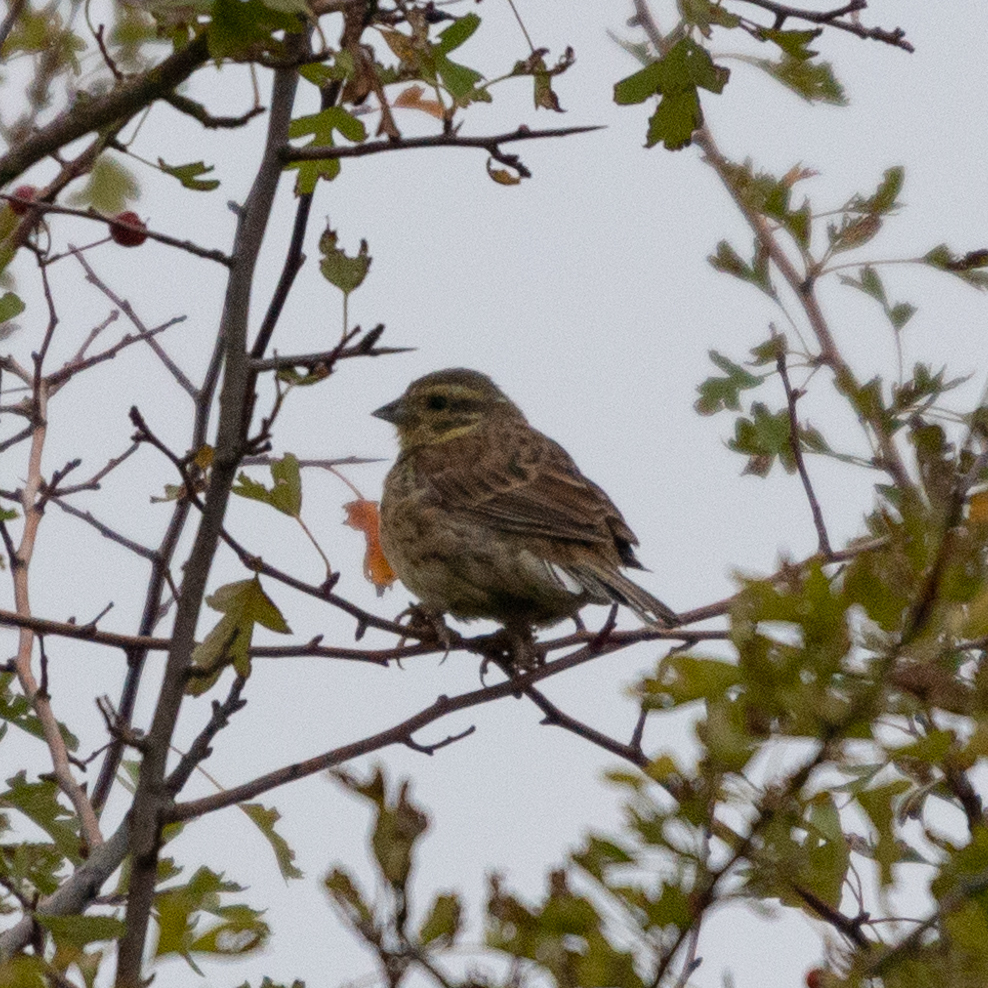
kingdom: Animalia
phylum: Chordata
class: Aves
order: Passeriformes
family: Emberizidae
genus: Emberiza
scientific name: Emberiza cirlus
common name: Cirl bunting
